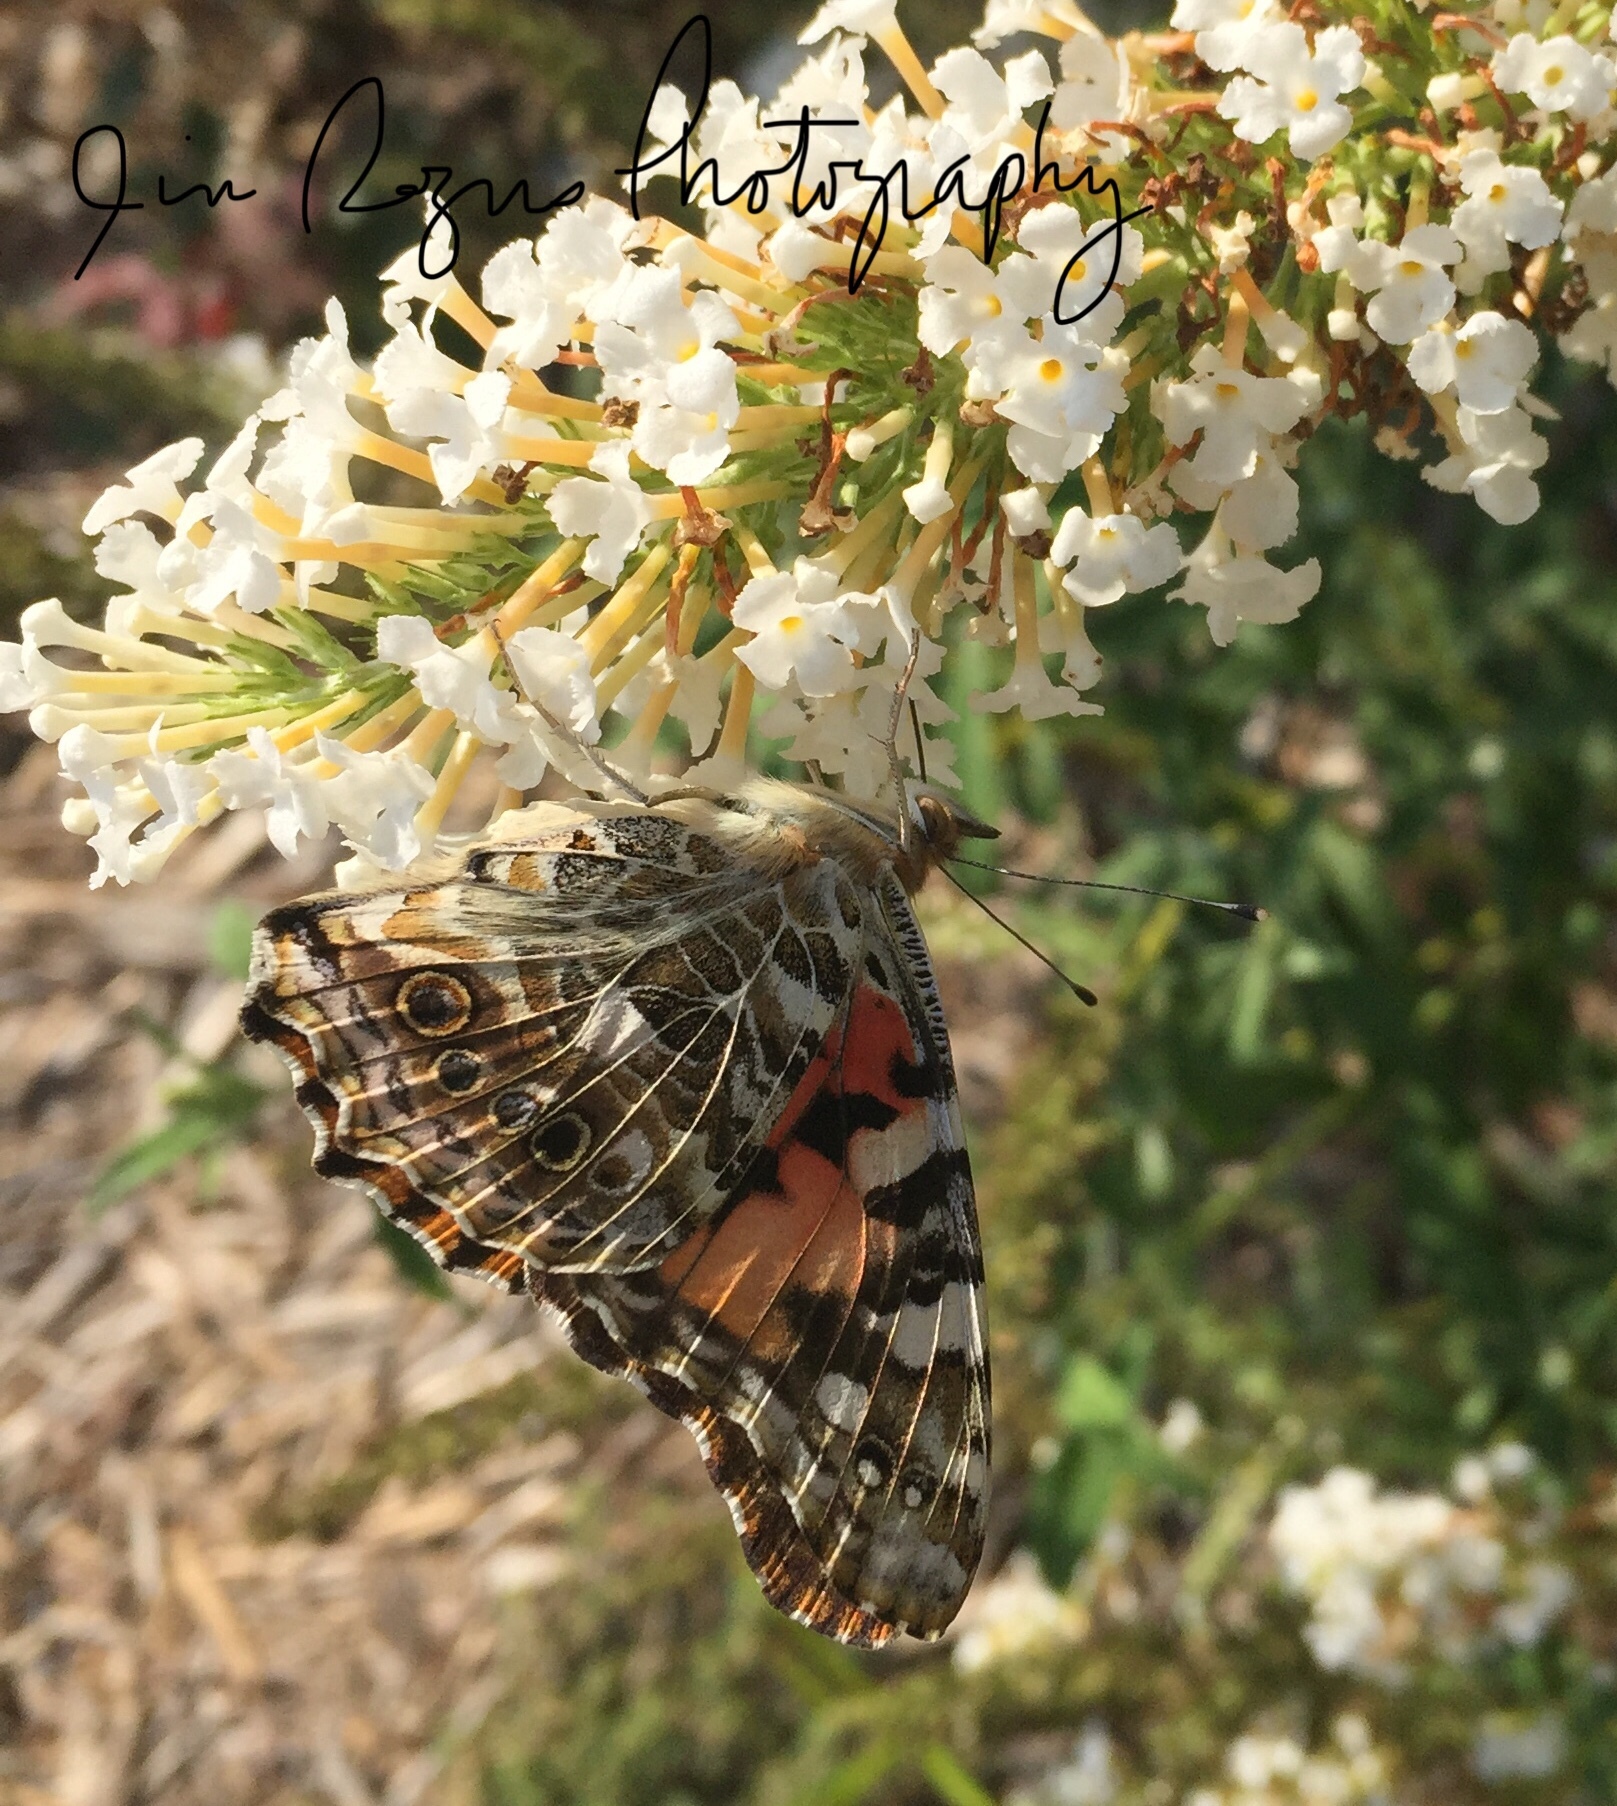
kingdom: Animalia
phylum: Arthropoda
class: Insecta
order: Lepidoptera
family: Nymphalidae
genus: Vanessa
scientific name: Vanessa cardui
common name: Painted lady
